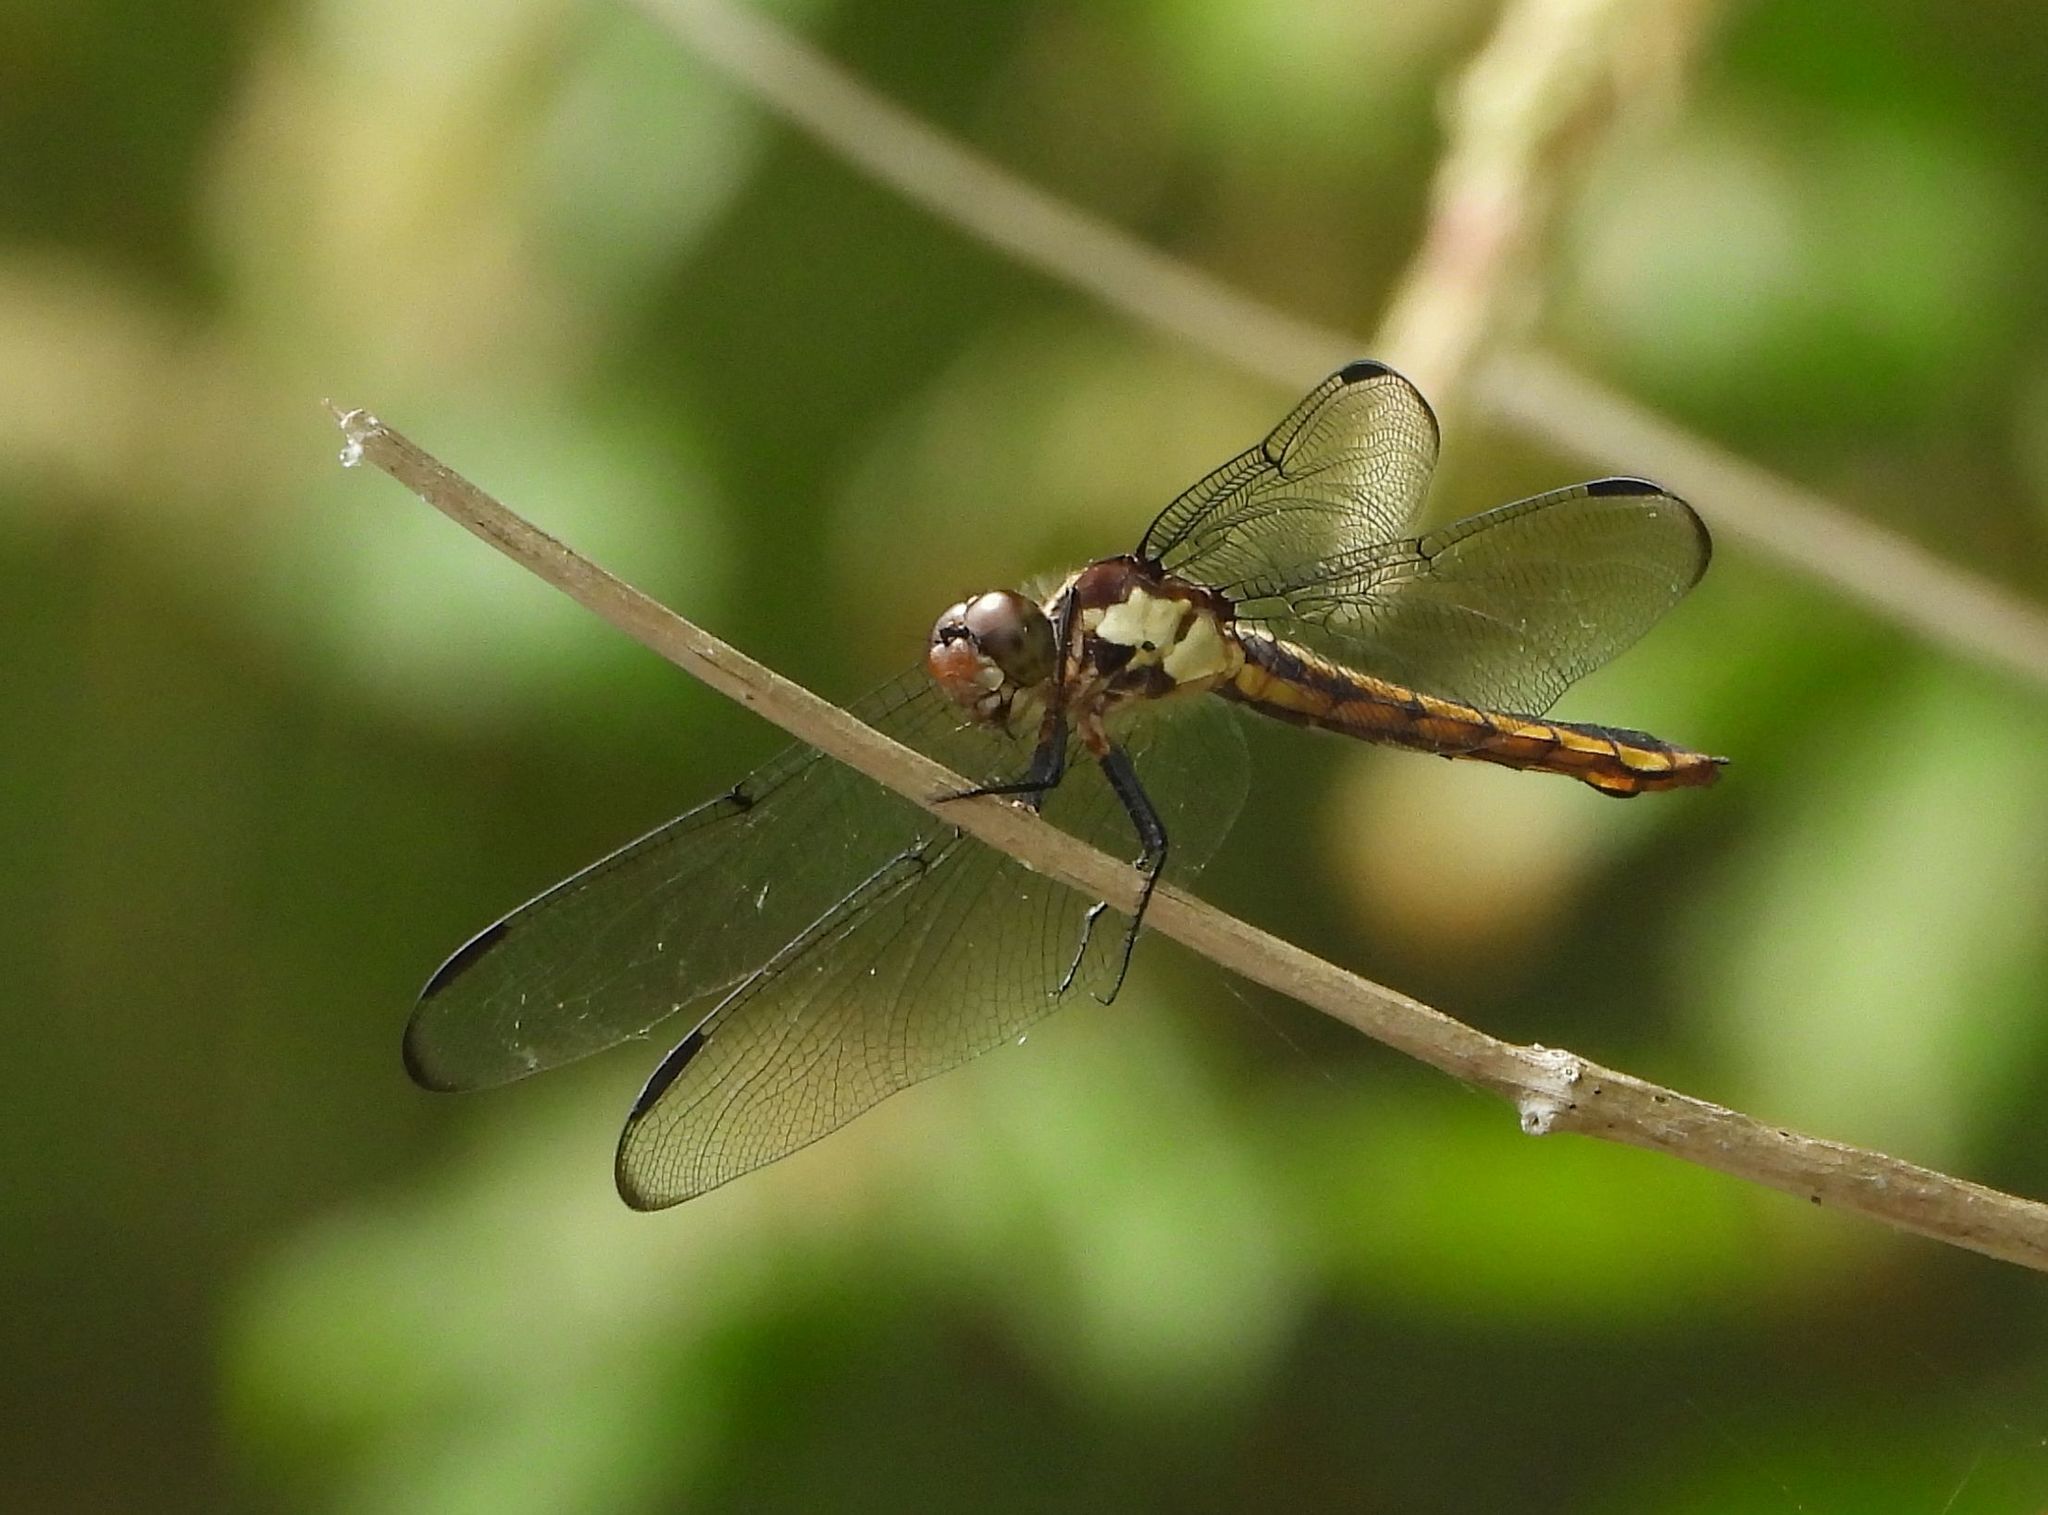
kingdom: Animalia
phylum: Arthropoda
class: Insecta
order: Odonata
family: Libellulidae
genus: Libellula
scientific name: Libellula incesta
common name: Slaty skimmer
